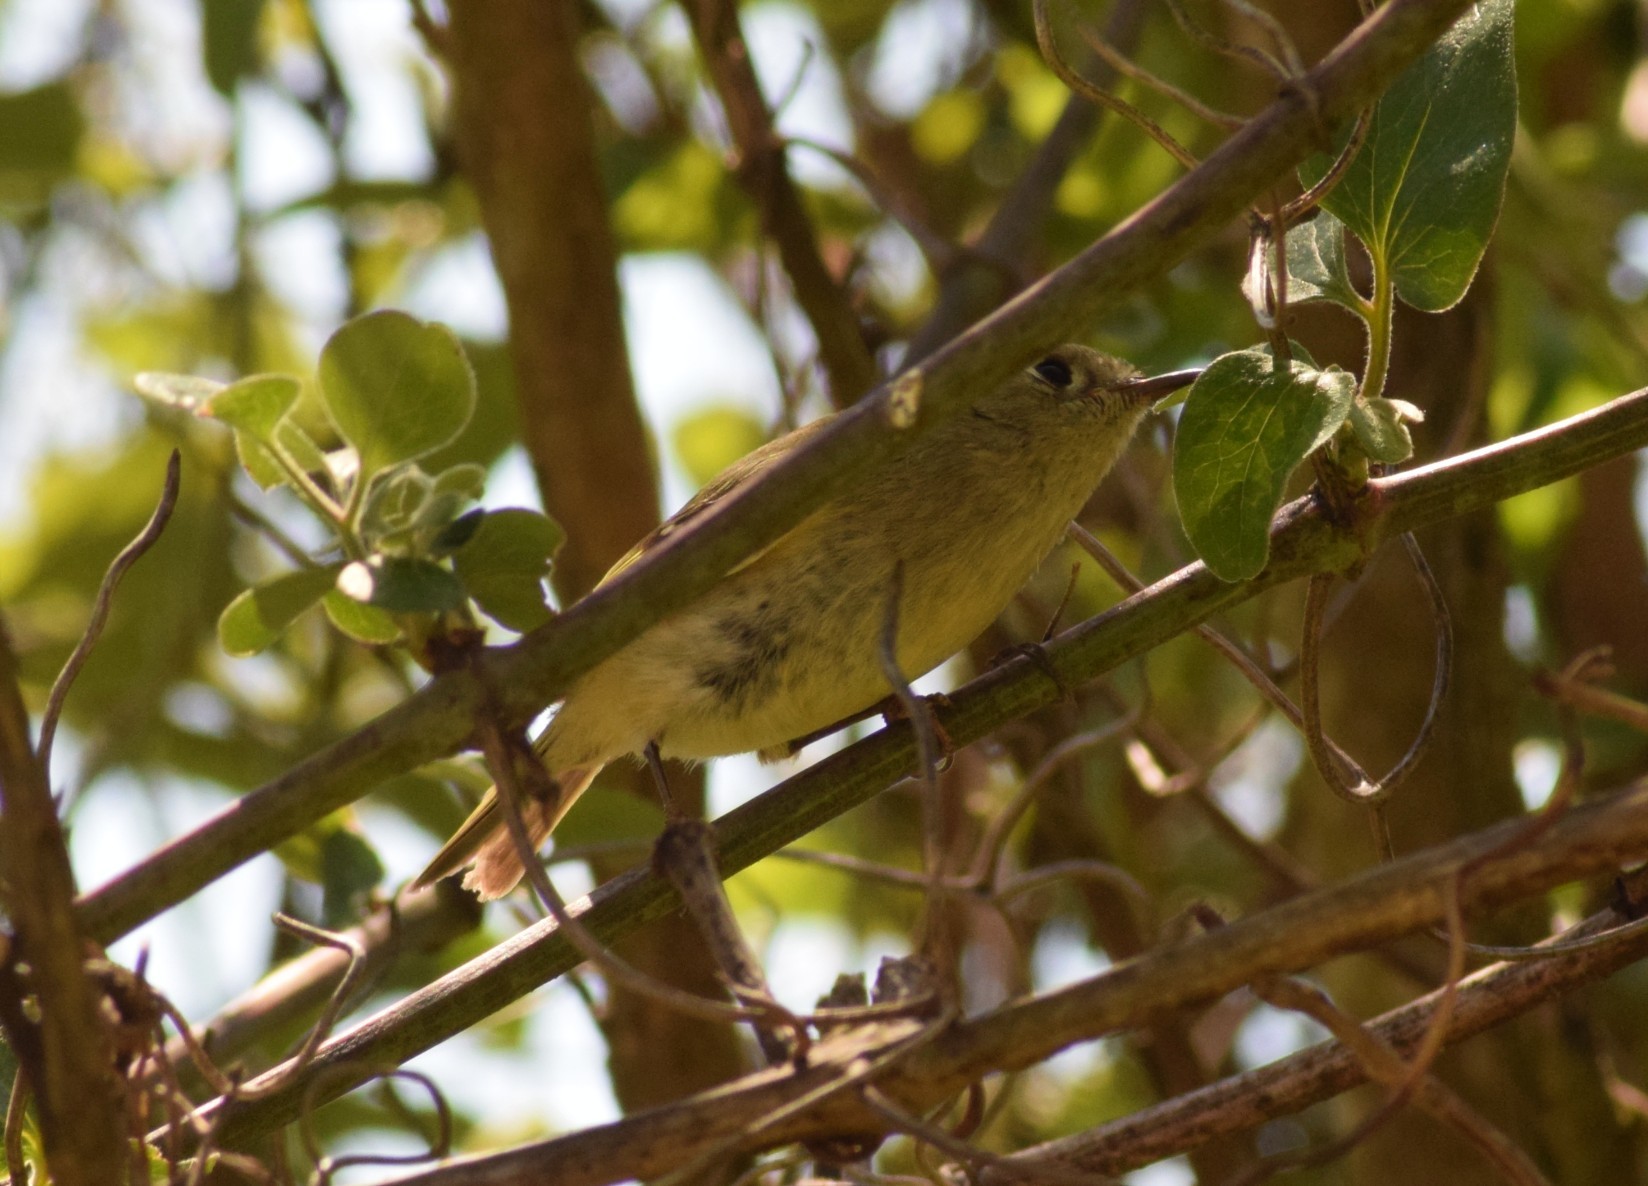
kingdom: Animalia
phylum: Chordata
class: Aves
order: Passeriformes
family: Regulidae
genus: Regulus
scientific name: Regulus calendula
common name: Ruby-crowned kinglet
